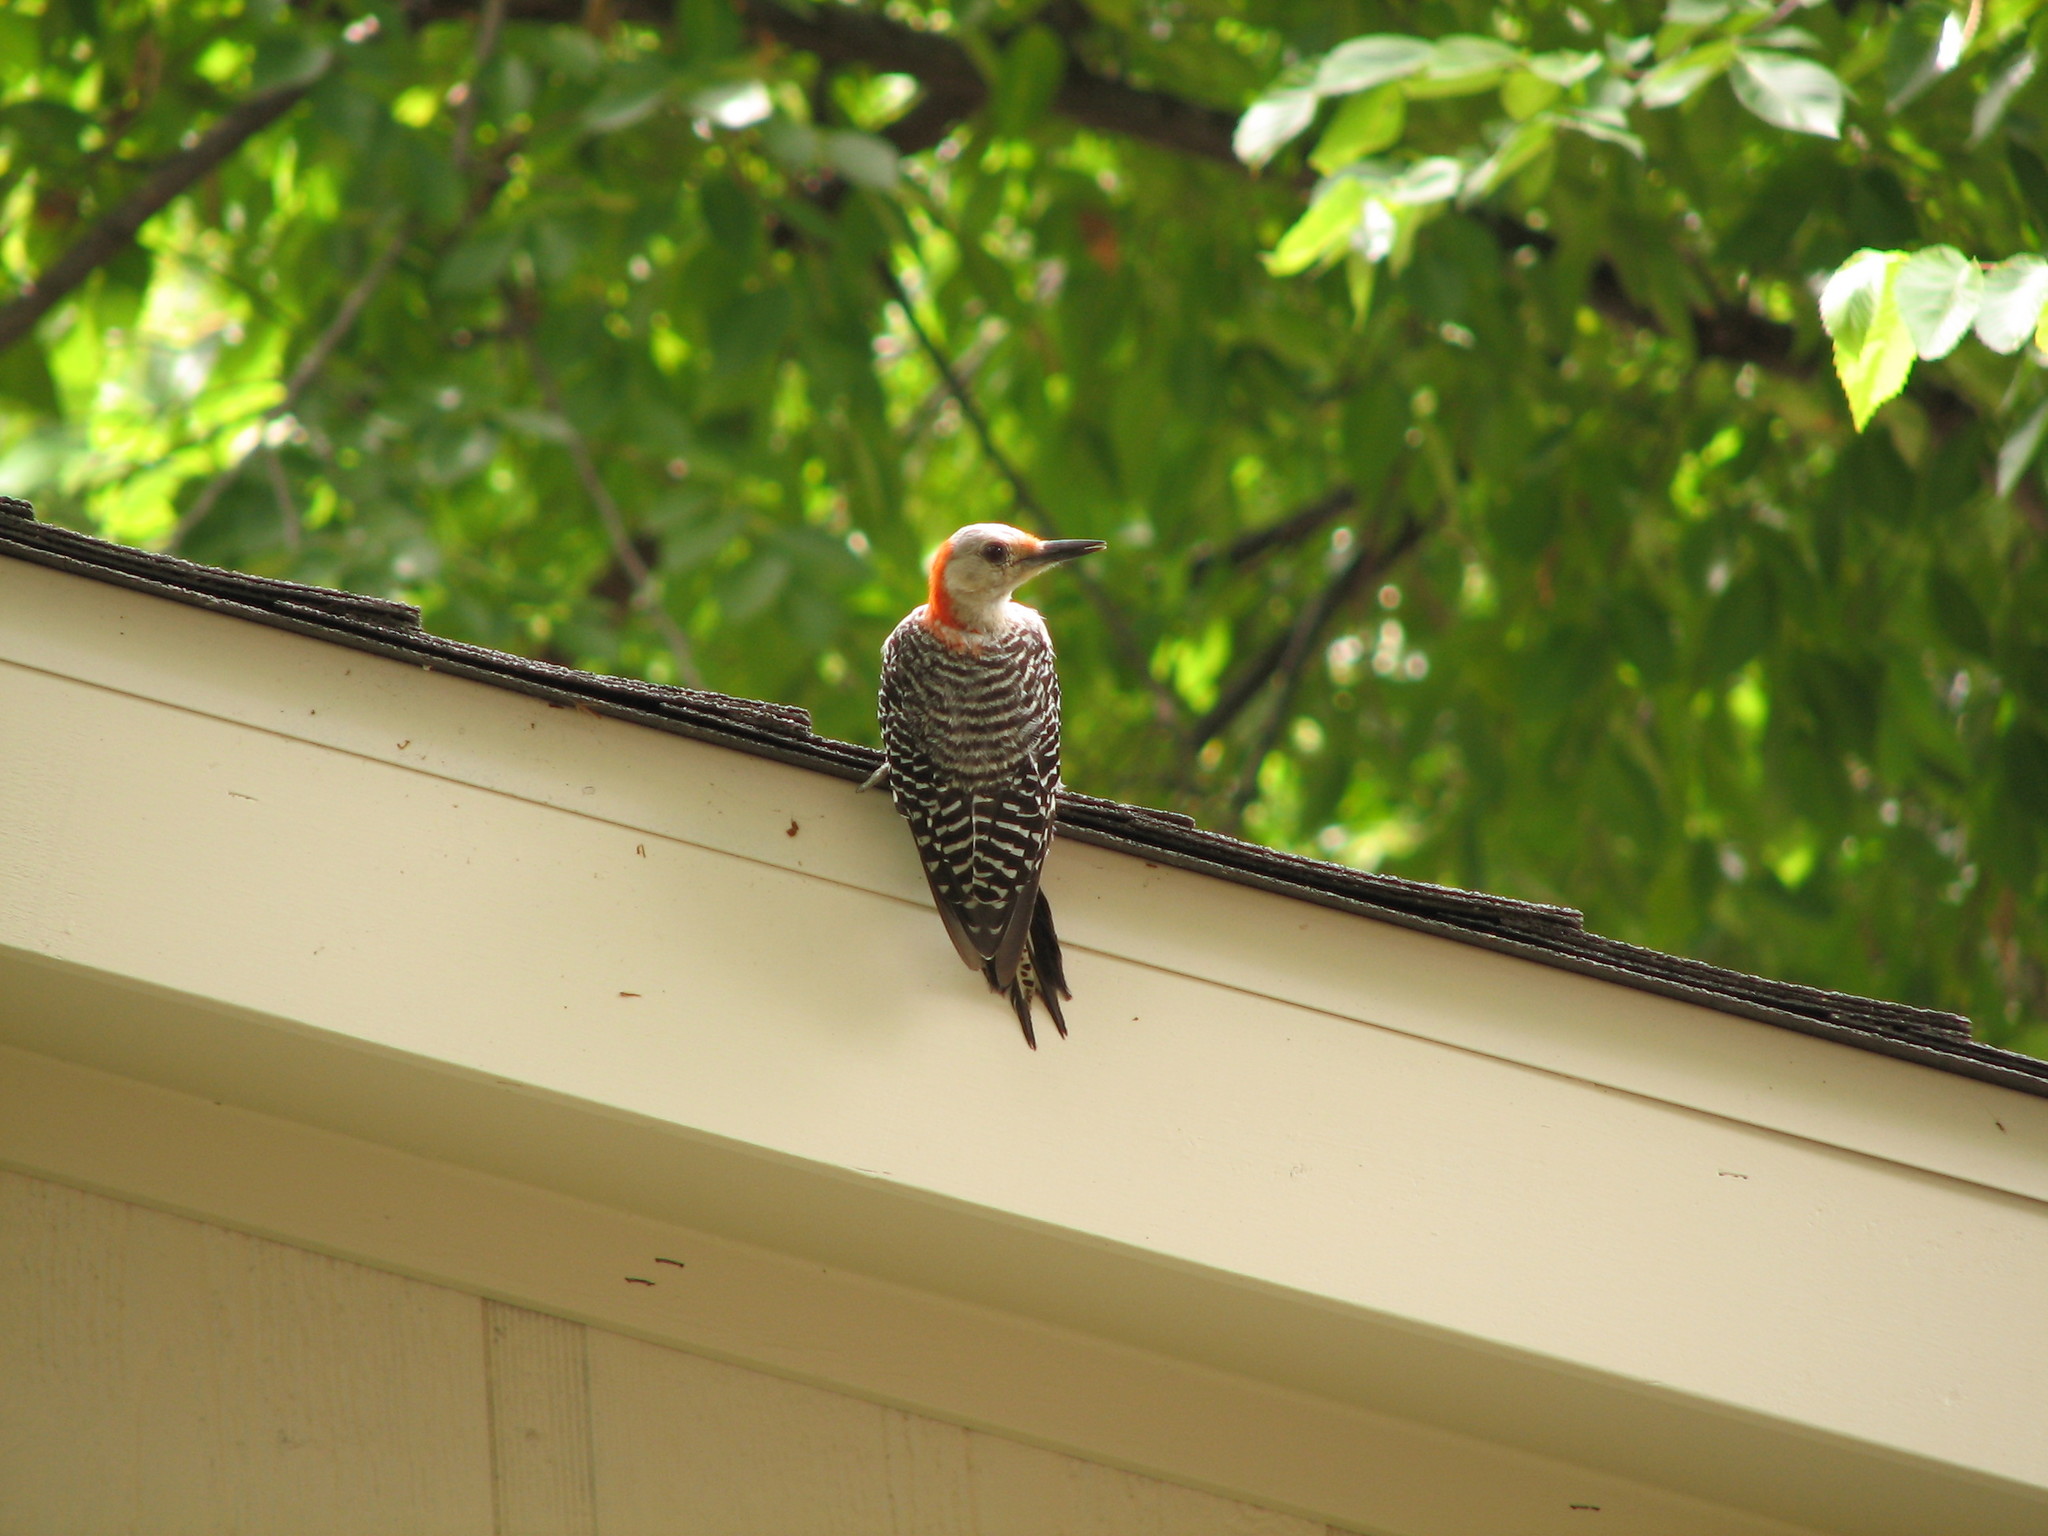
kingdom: Animalia
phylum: Chordata
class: Aves
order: Piciformes
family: Picidae
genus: Melanerpes
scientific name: Melanerpes carolinus
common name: Red-bellied woodpecker
